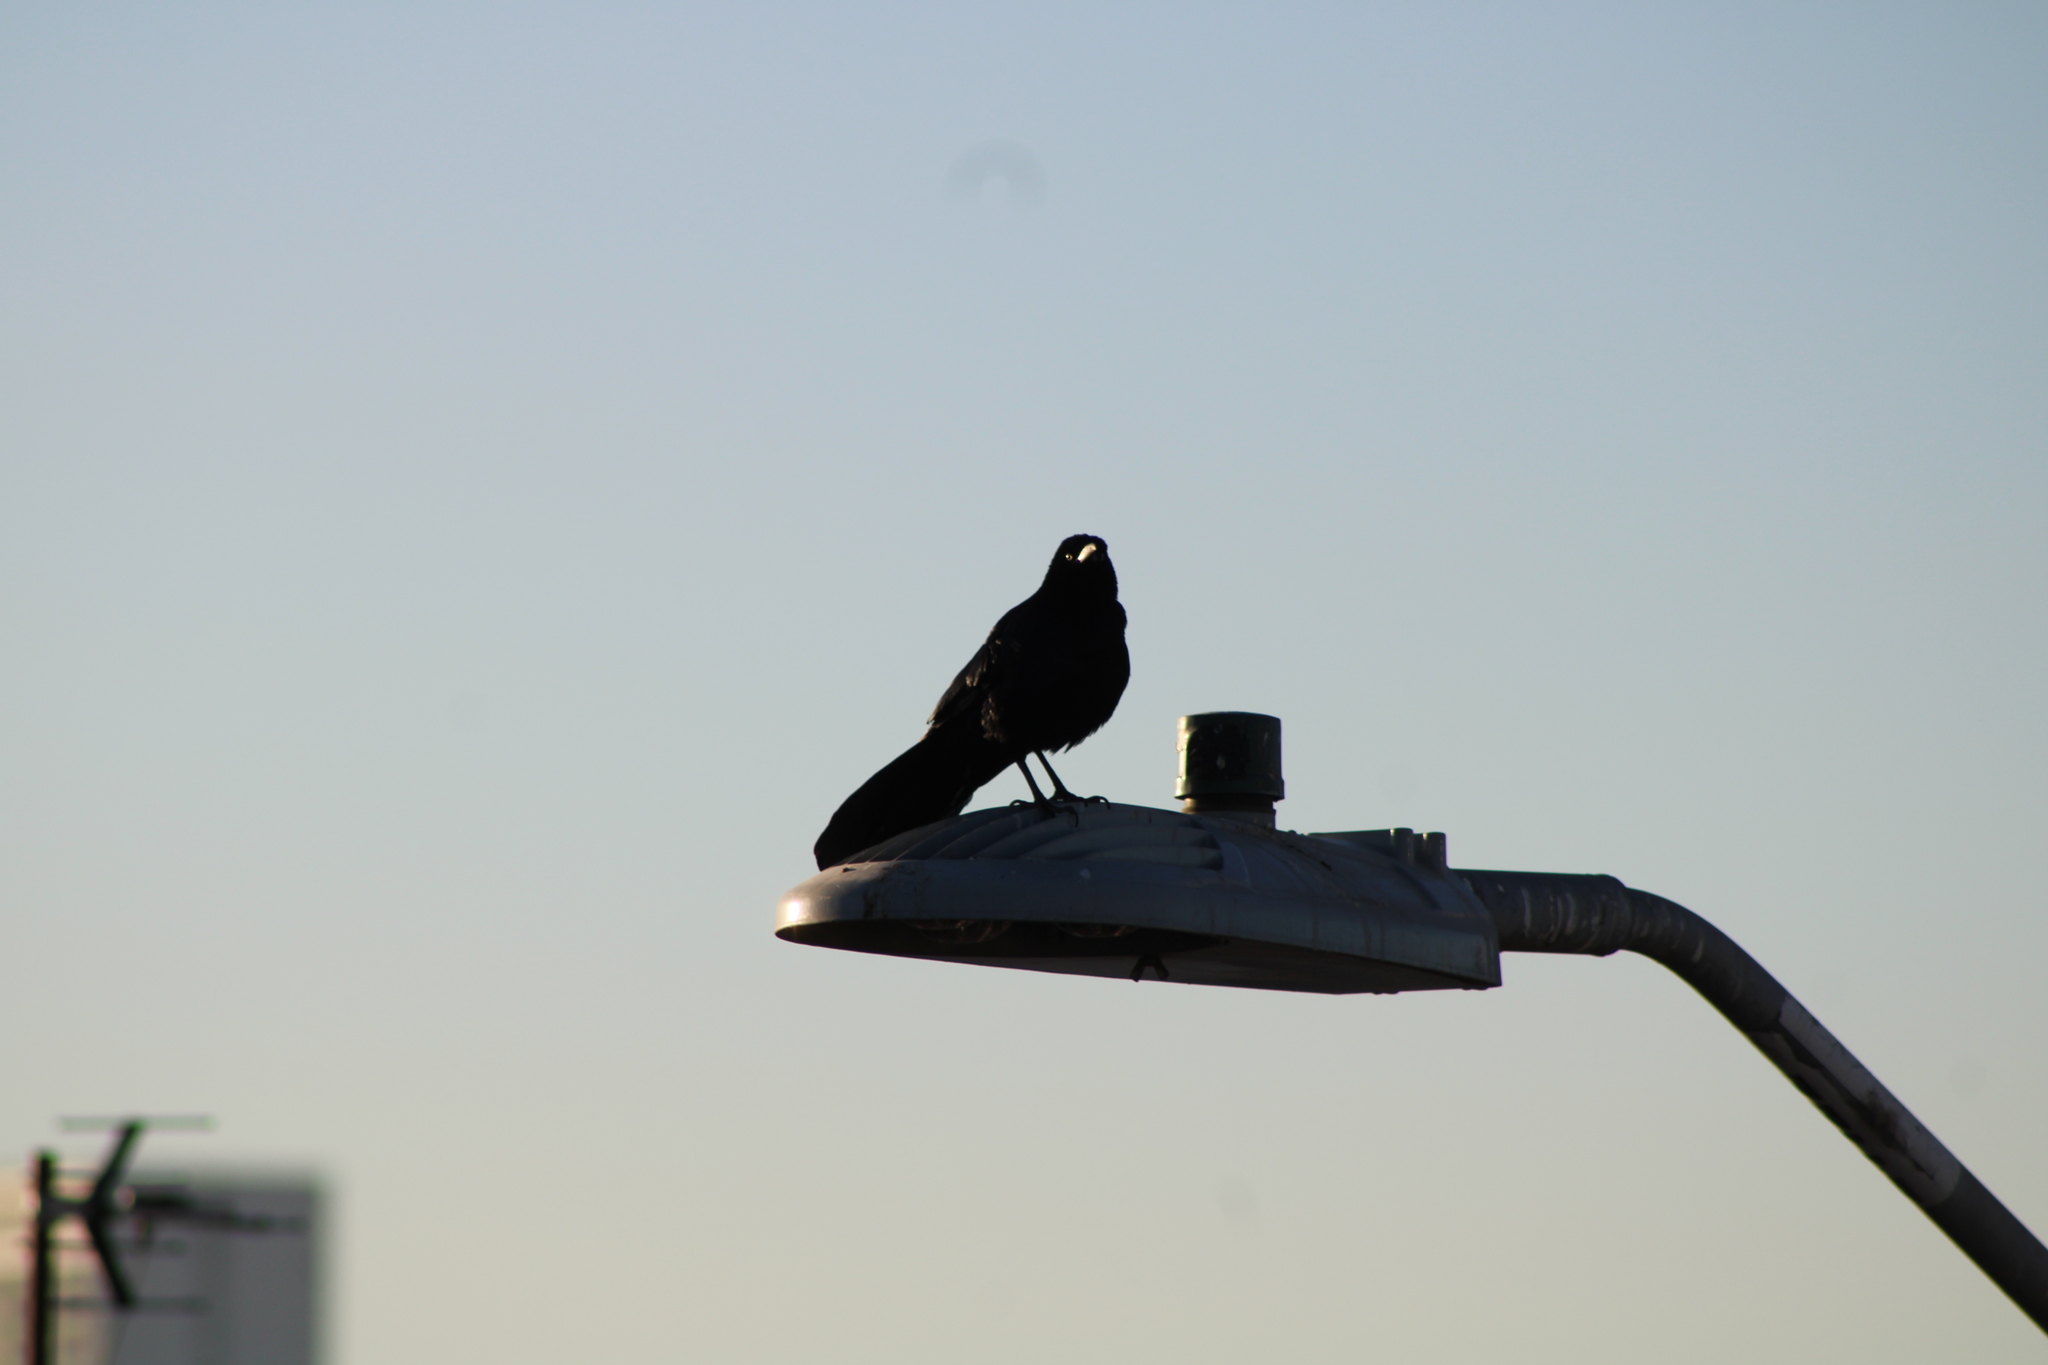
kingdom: Animalia
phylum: Chordata
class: Aves
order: Passeriformes
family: Icteridae
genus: Quiscalus
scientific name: Quiscalus mexicanus
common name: Great-tailed grackle
